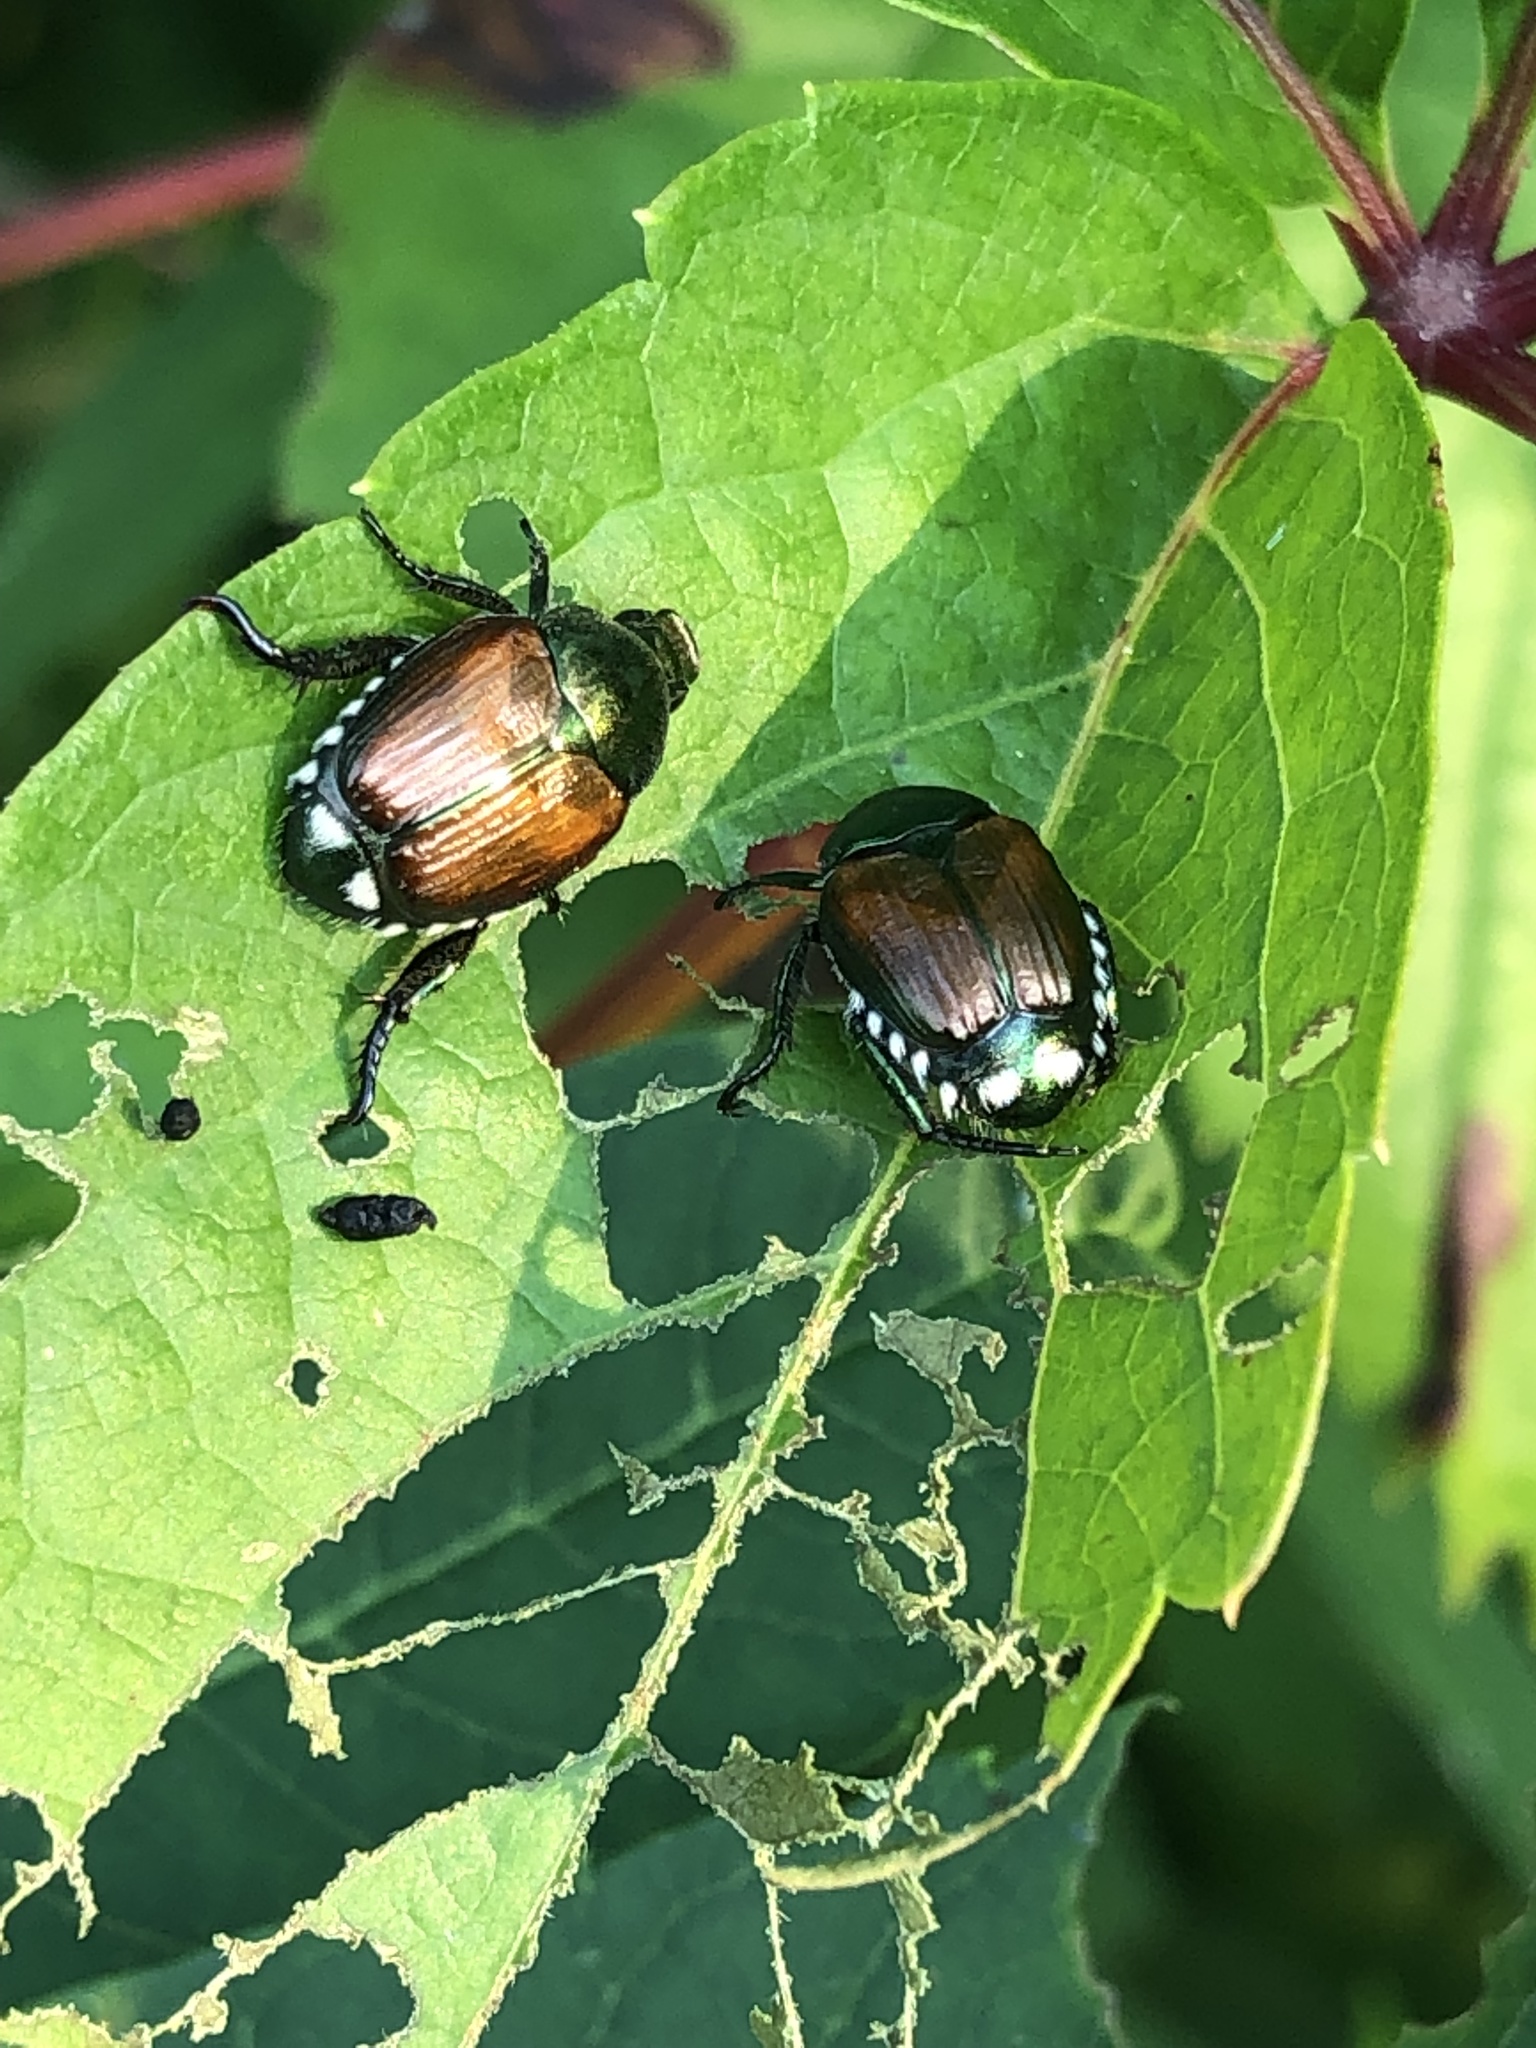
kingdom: Animalia
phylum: Arthropoda
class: Insecta
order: Coleoptera
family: Scarabaeidae
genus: Popillia
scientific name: Popillia japonica
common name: Japanese beetle
